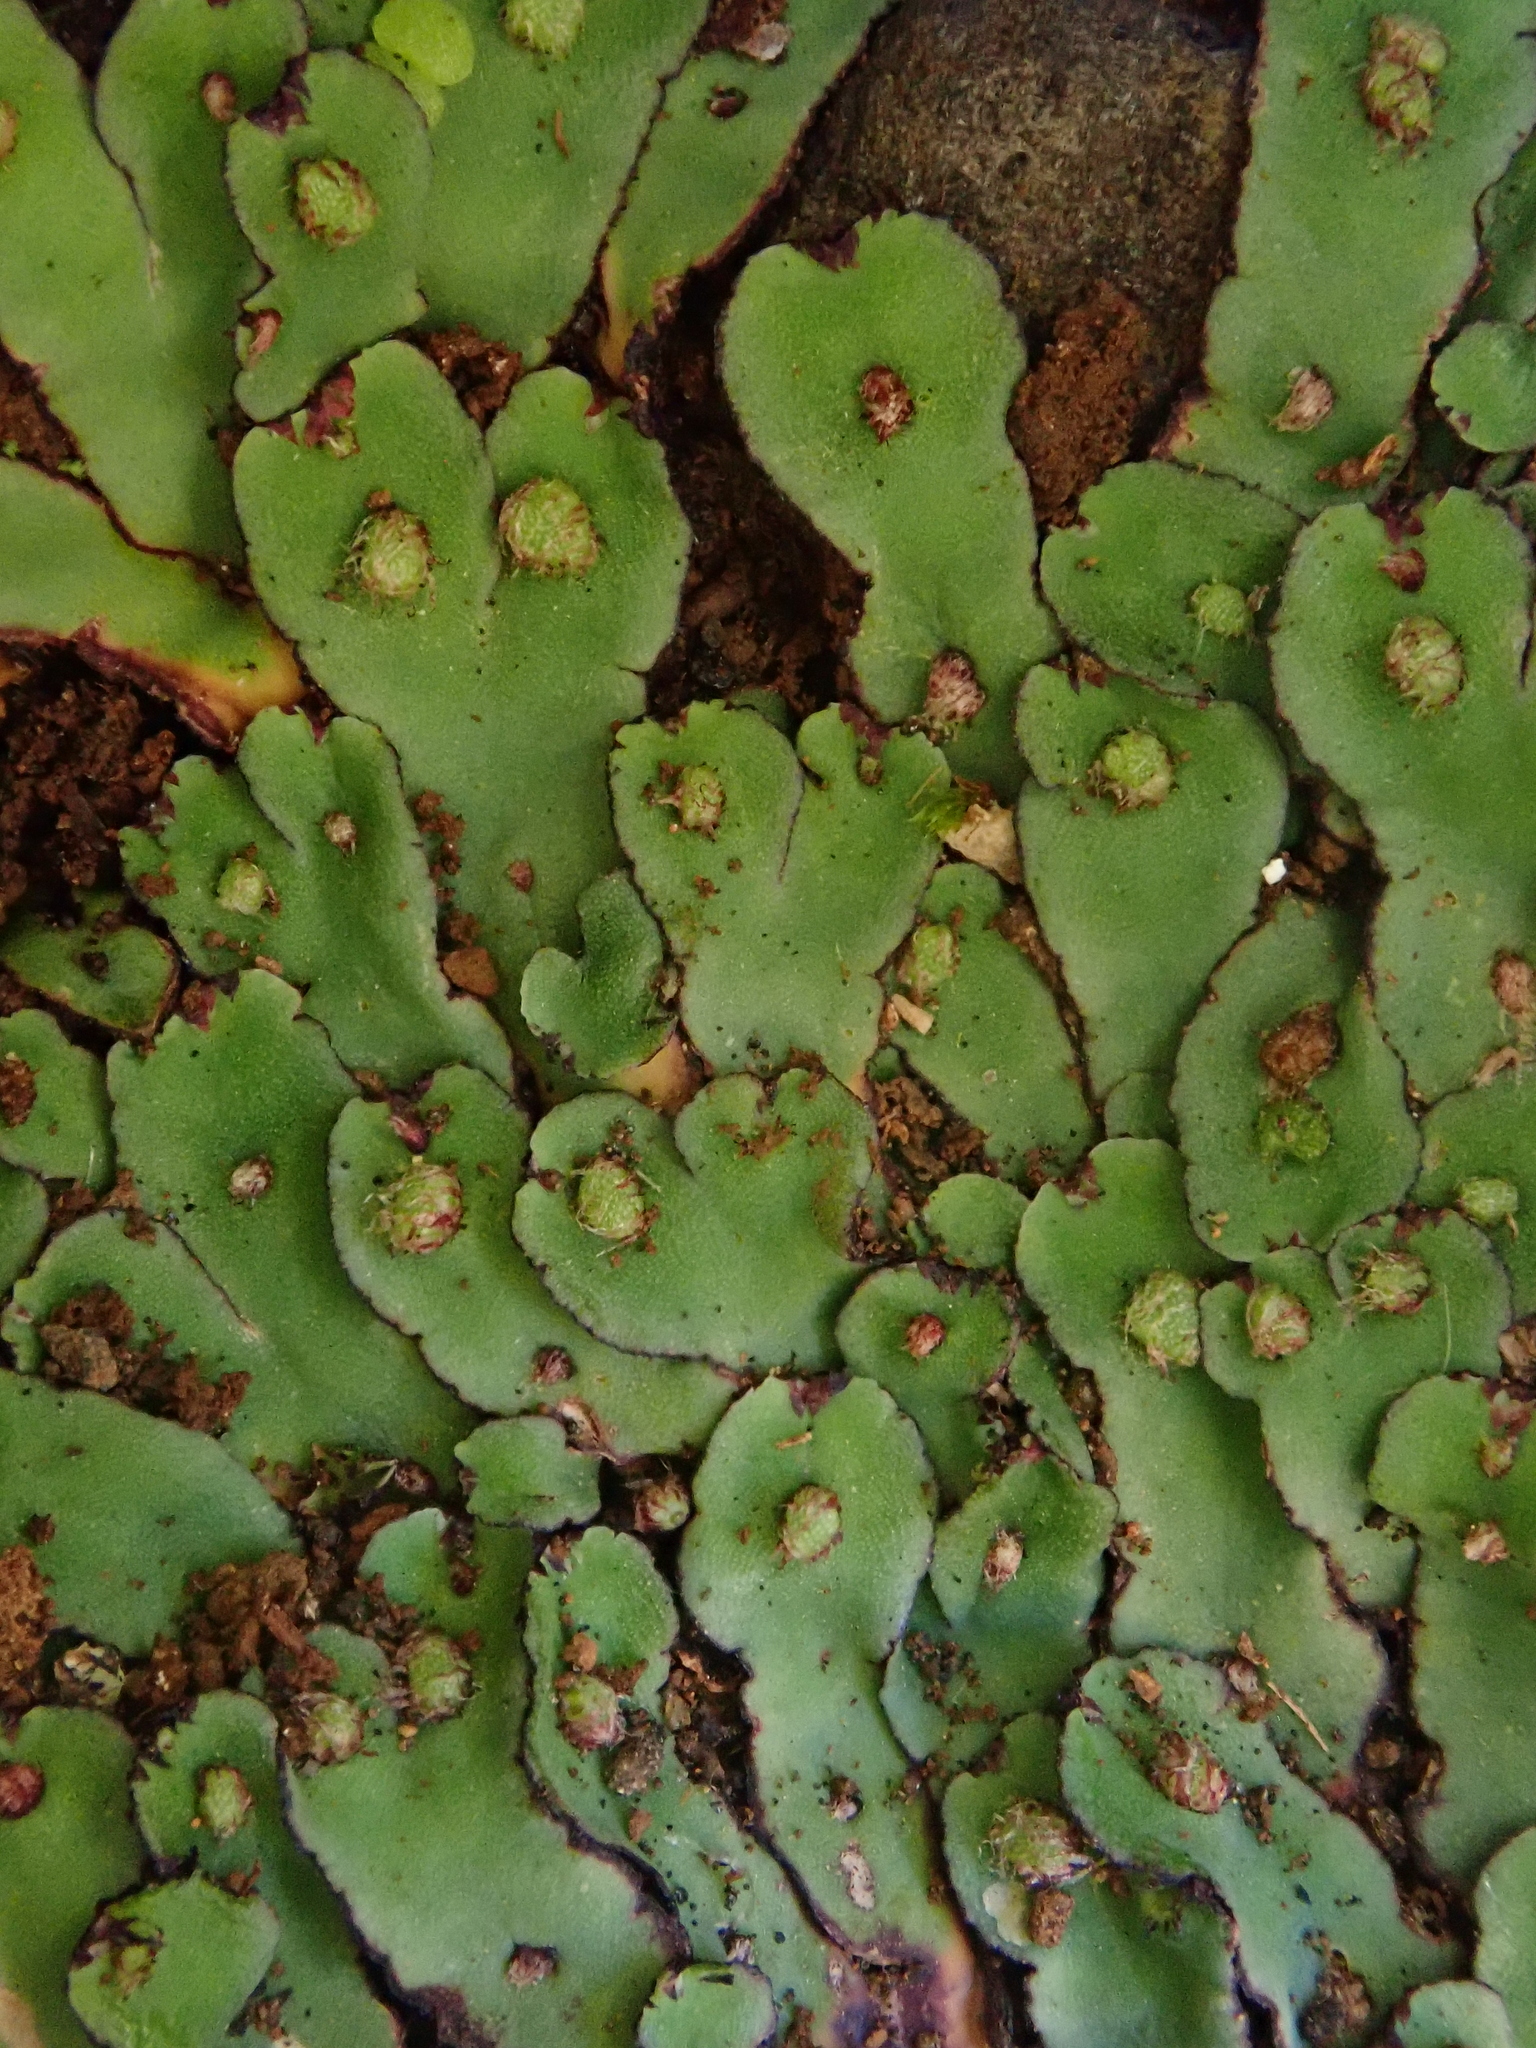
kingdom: Plantae
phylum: Marchantiophyta
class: Marchantiopsida
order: Marchantiales
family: Aytoniaceae
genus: Plagiochasma
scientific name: Plagiochasma rupestre
